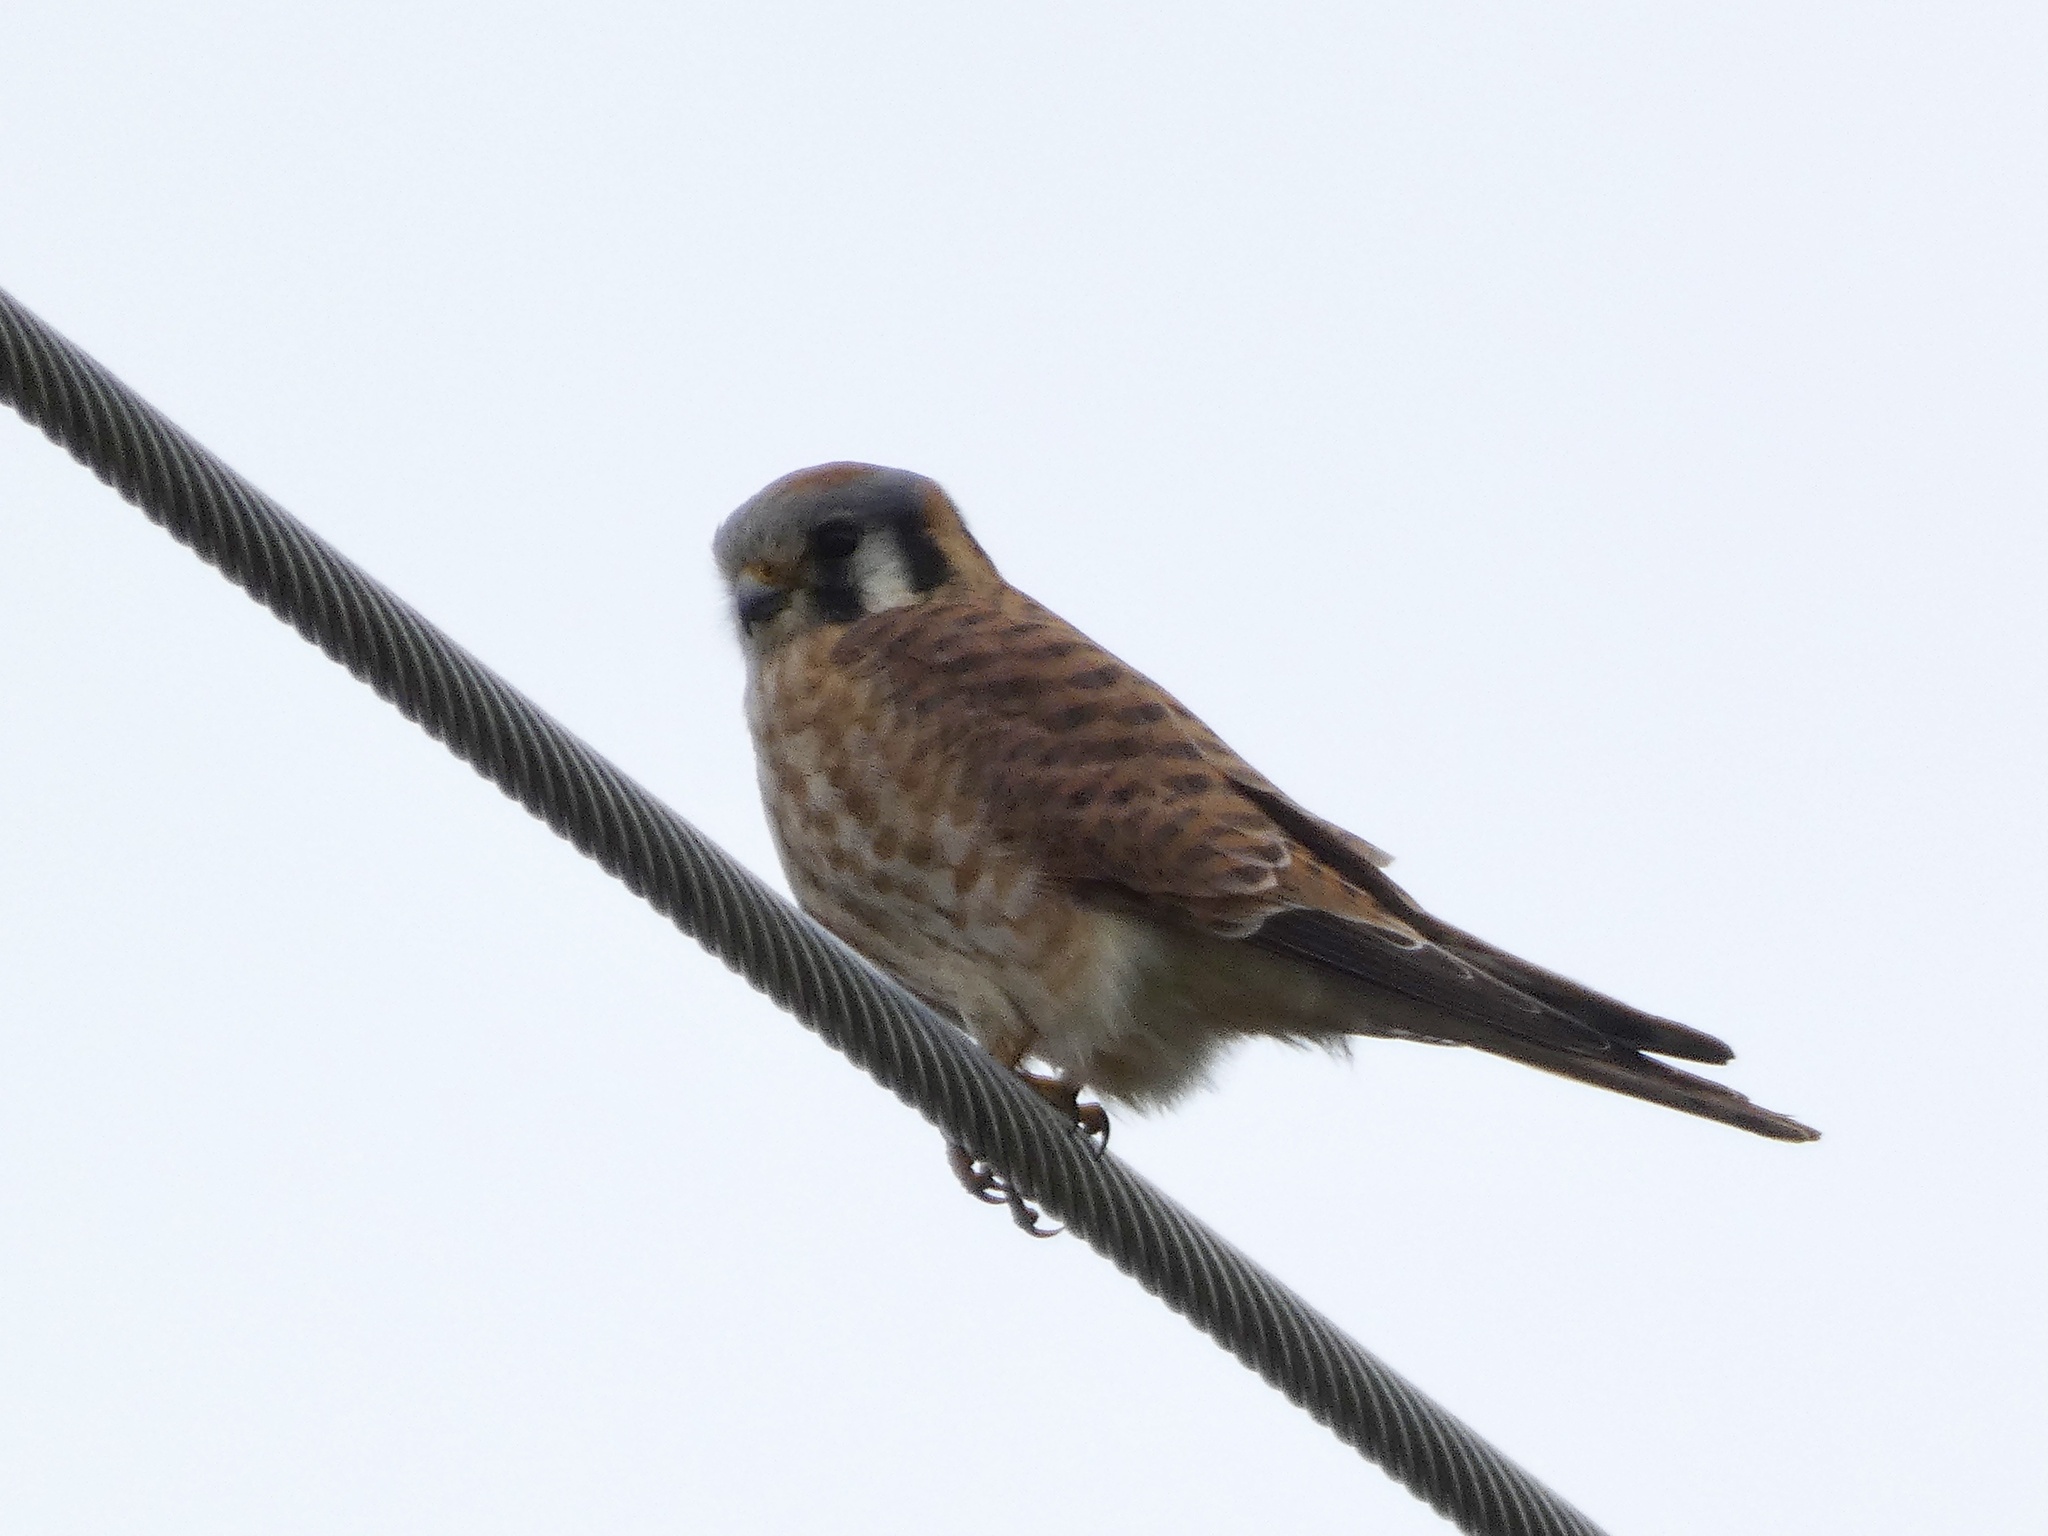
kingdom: Animalia
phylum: Chordata
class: Aves
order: Falconiformes
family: Falconidae
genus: Falco
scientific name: Falco sparverius
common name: American kestrel
